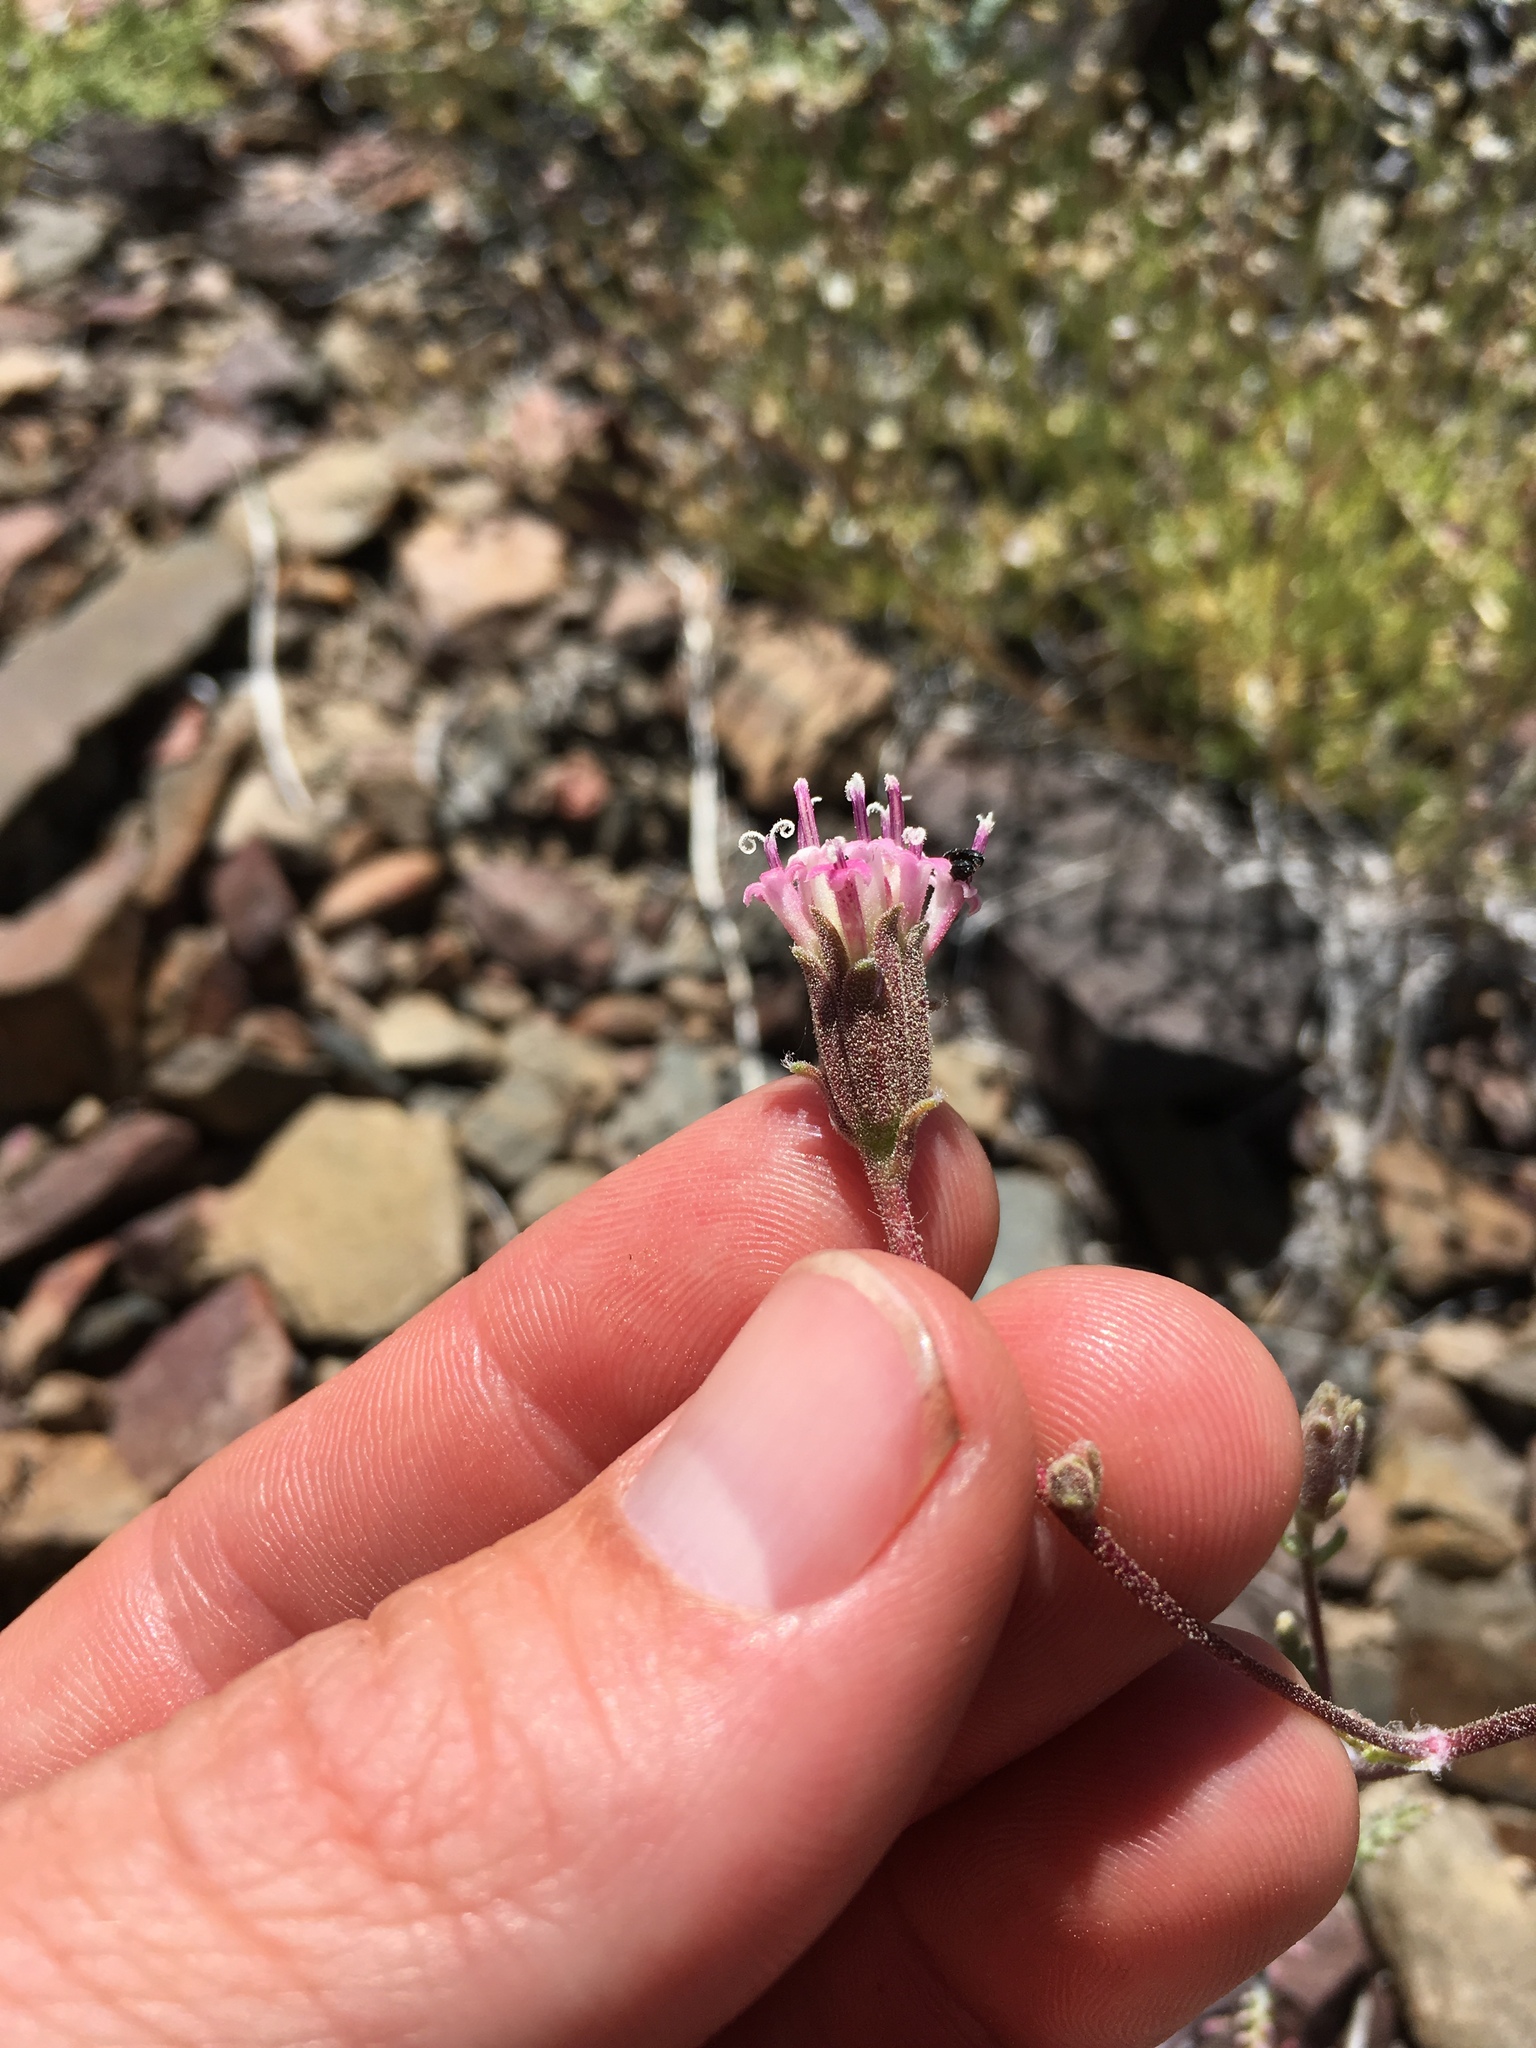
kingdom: Plantae
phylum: Tracheophyta
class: Magnoliopsida
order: Asterales
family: Asteraceae
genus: Chaenactis
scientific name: Chaenactis douglasii
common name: Hoary pincushion
